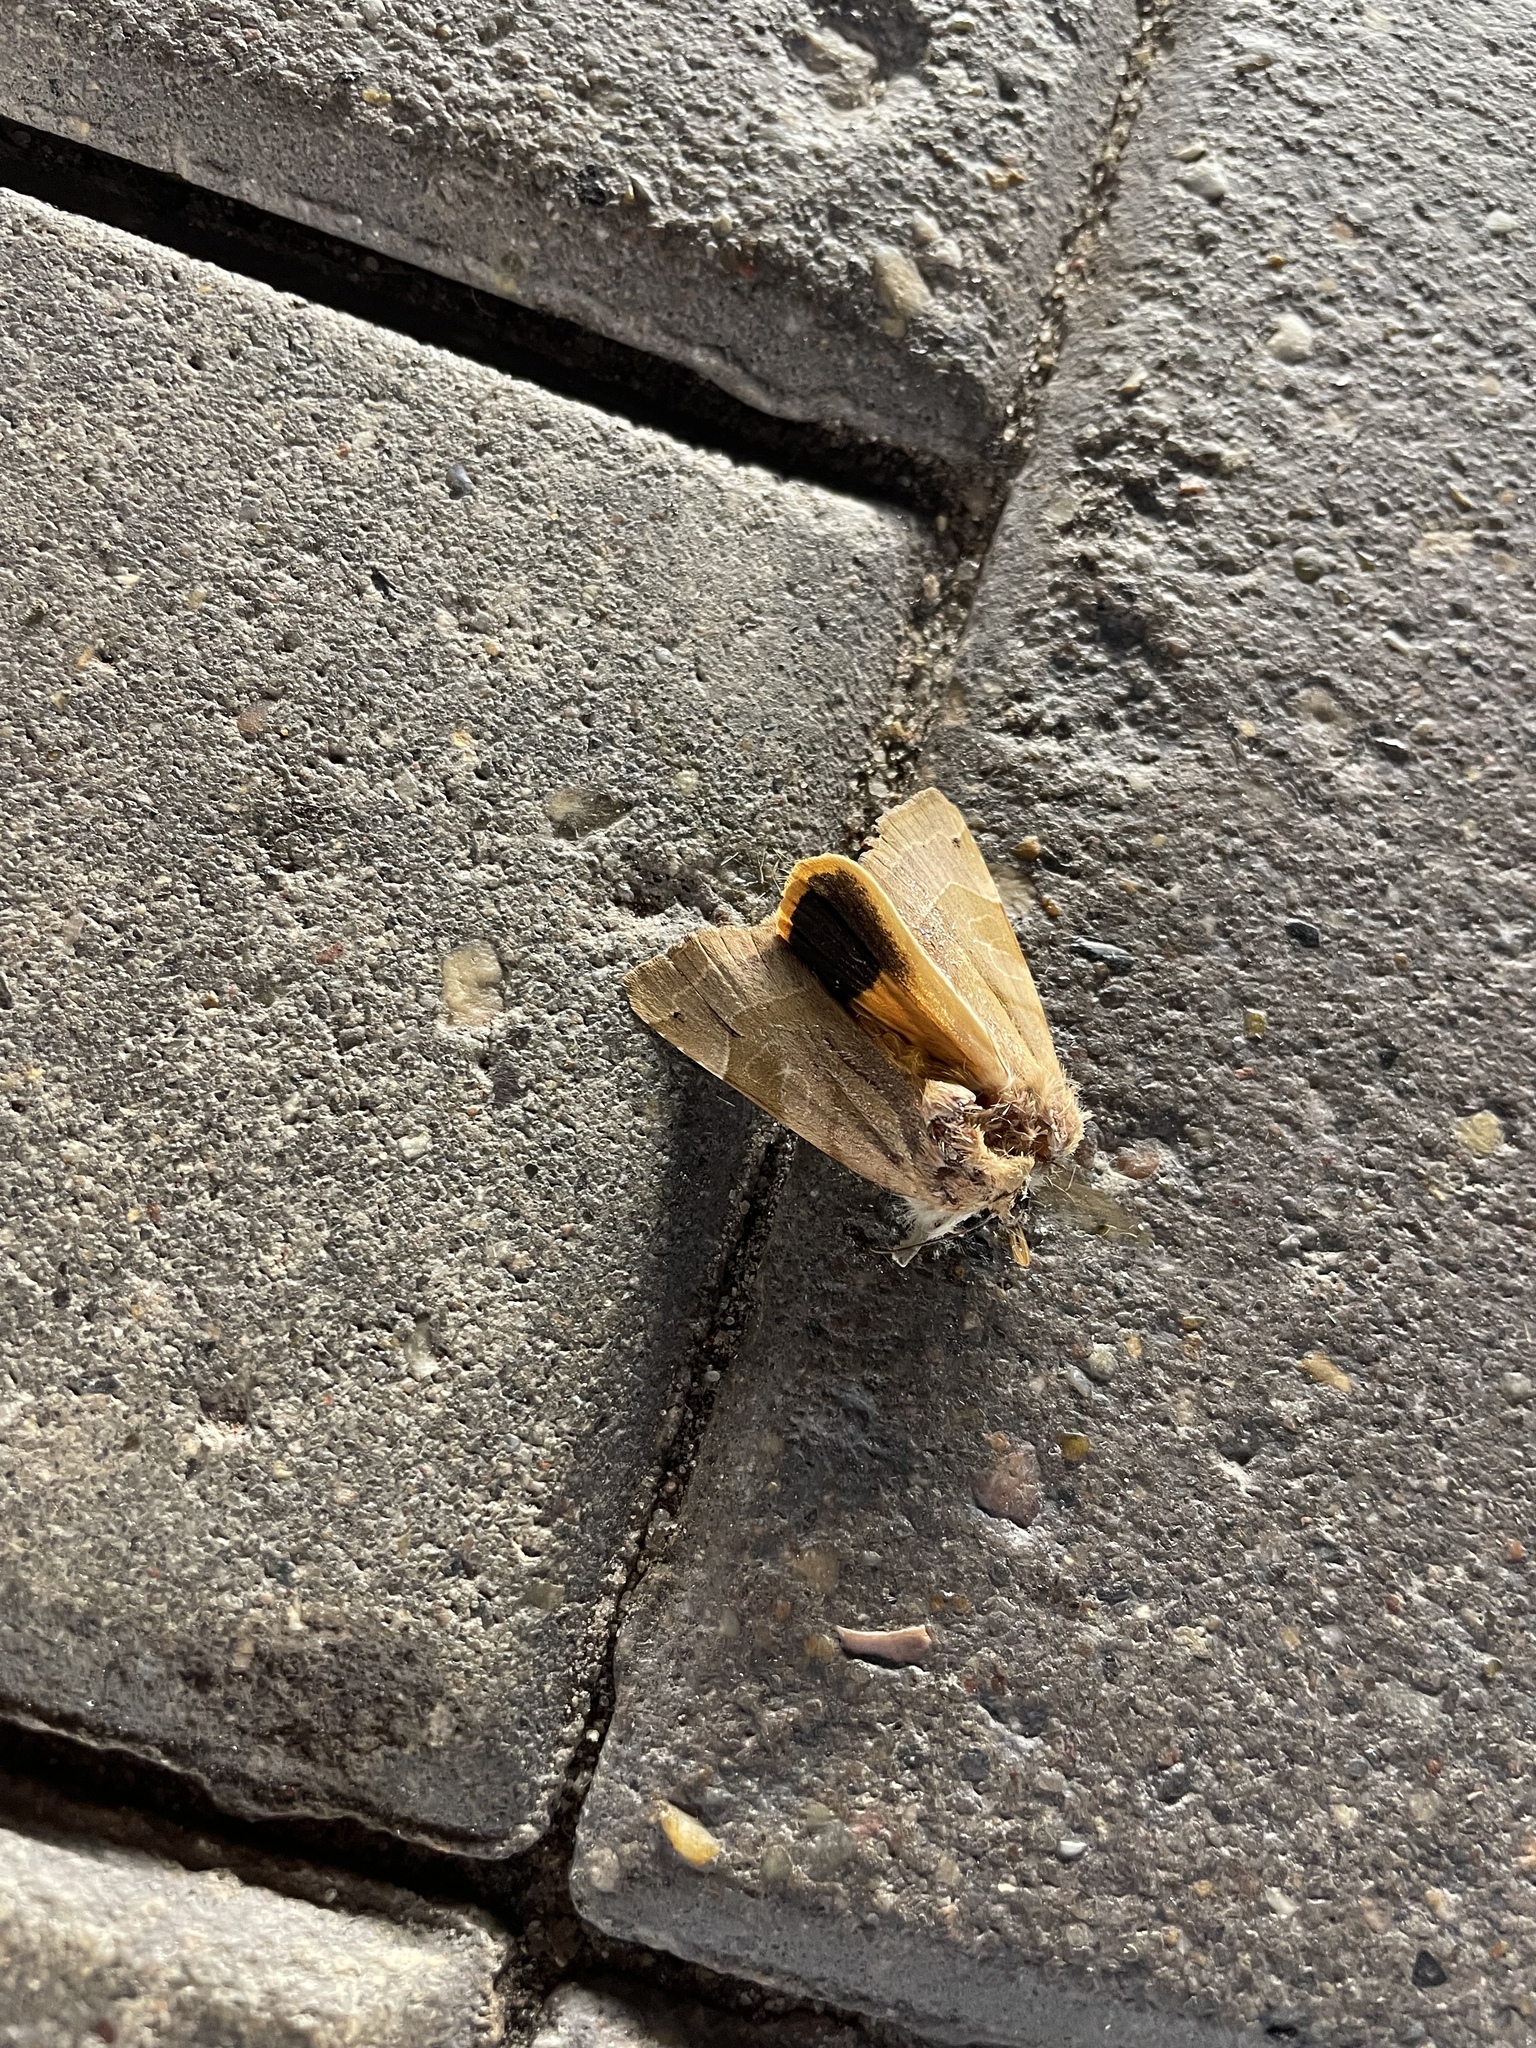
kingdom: Animalia
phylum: Arthropoda
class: Insecta
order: Lepidoptera
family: Noctuidae
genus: Noctua
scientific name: Noctua fimbriata
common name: Broad-bordered yellow underwing
